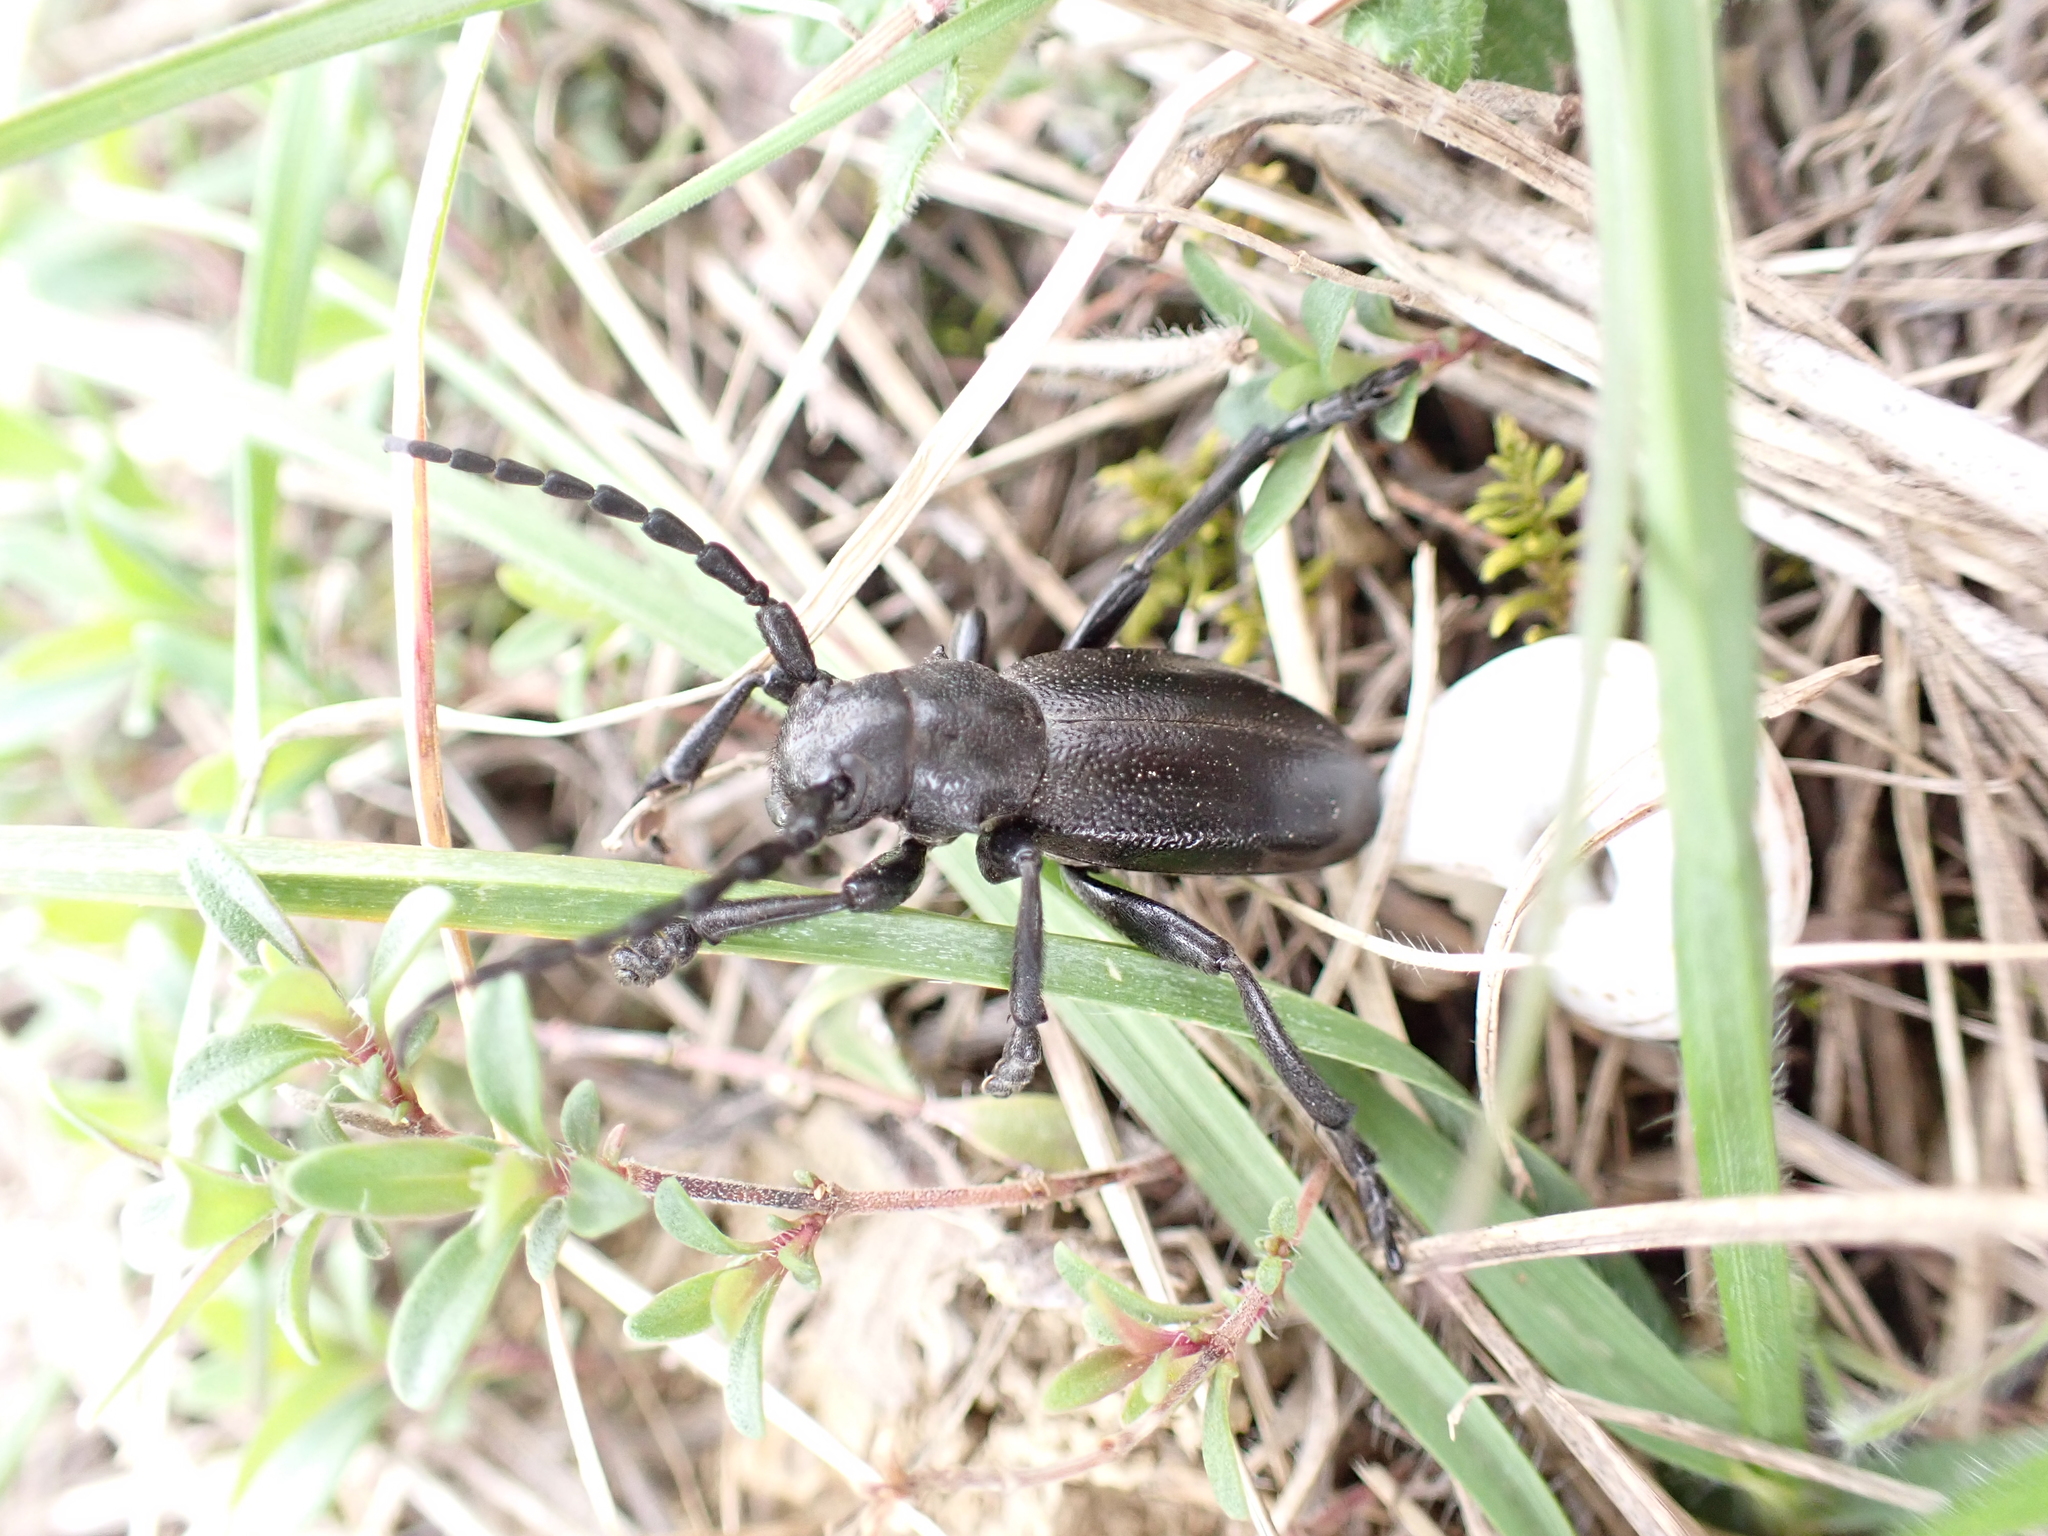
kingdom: Animalia
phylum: Arthropoda
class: Insecta
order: Coleoptera
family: Cerambycidae
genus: Dorcadion
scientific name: Dorcadion aethiops
